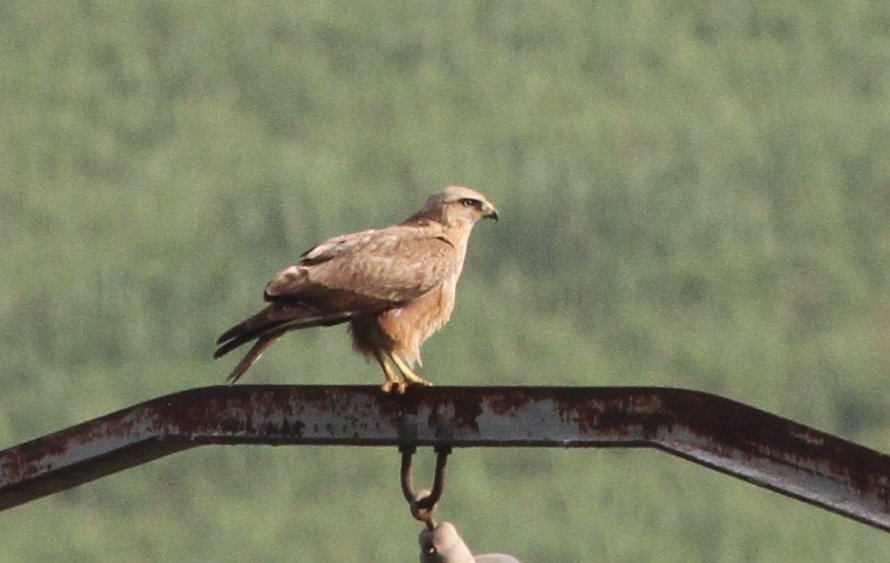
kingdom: Animalia
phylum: Chordata
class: Aves
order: Accipitriformes
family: Accipitridae
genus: Buteo
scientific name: Buteo rufinus
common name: Long-legged buzzard
